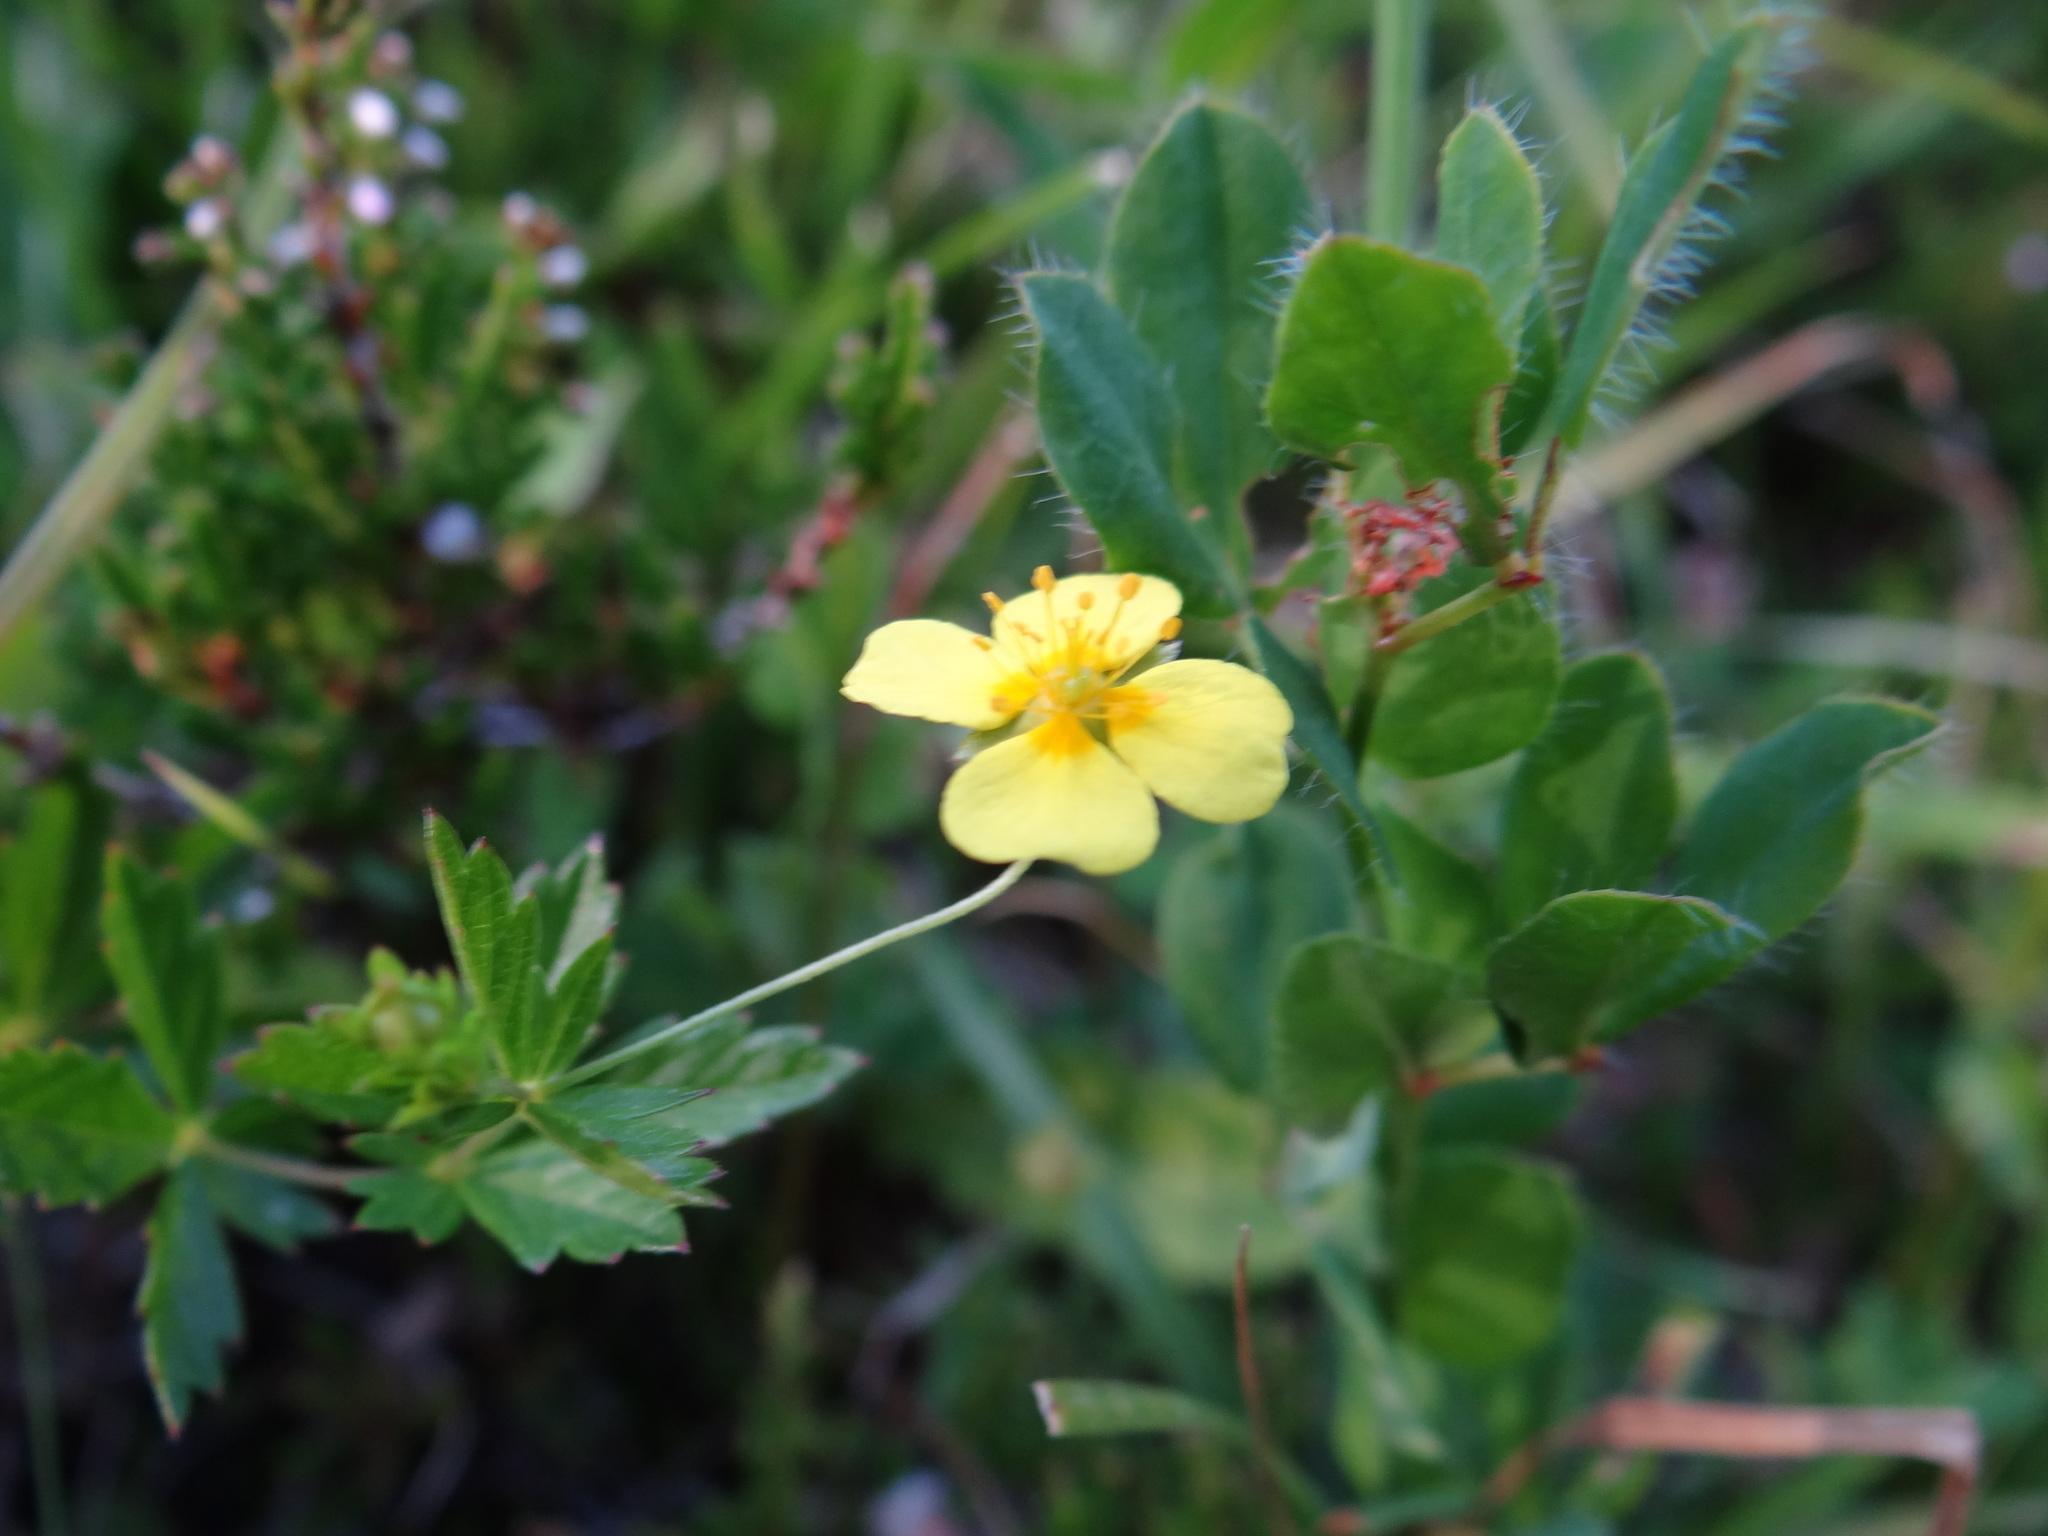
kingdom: Plantae
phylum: Tracheophyta
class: Magnoliopsida
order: Rosales
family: Rosaceae
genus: Potentilla
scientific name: Potentilla erecta
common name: Tormentil
